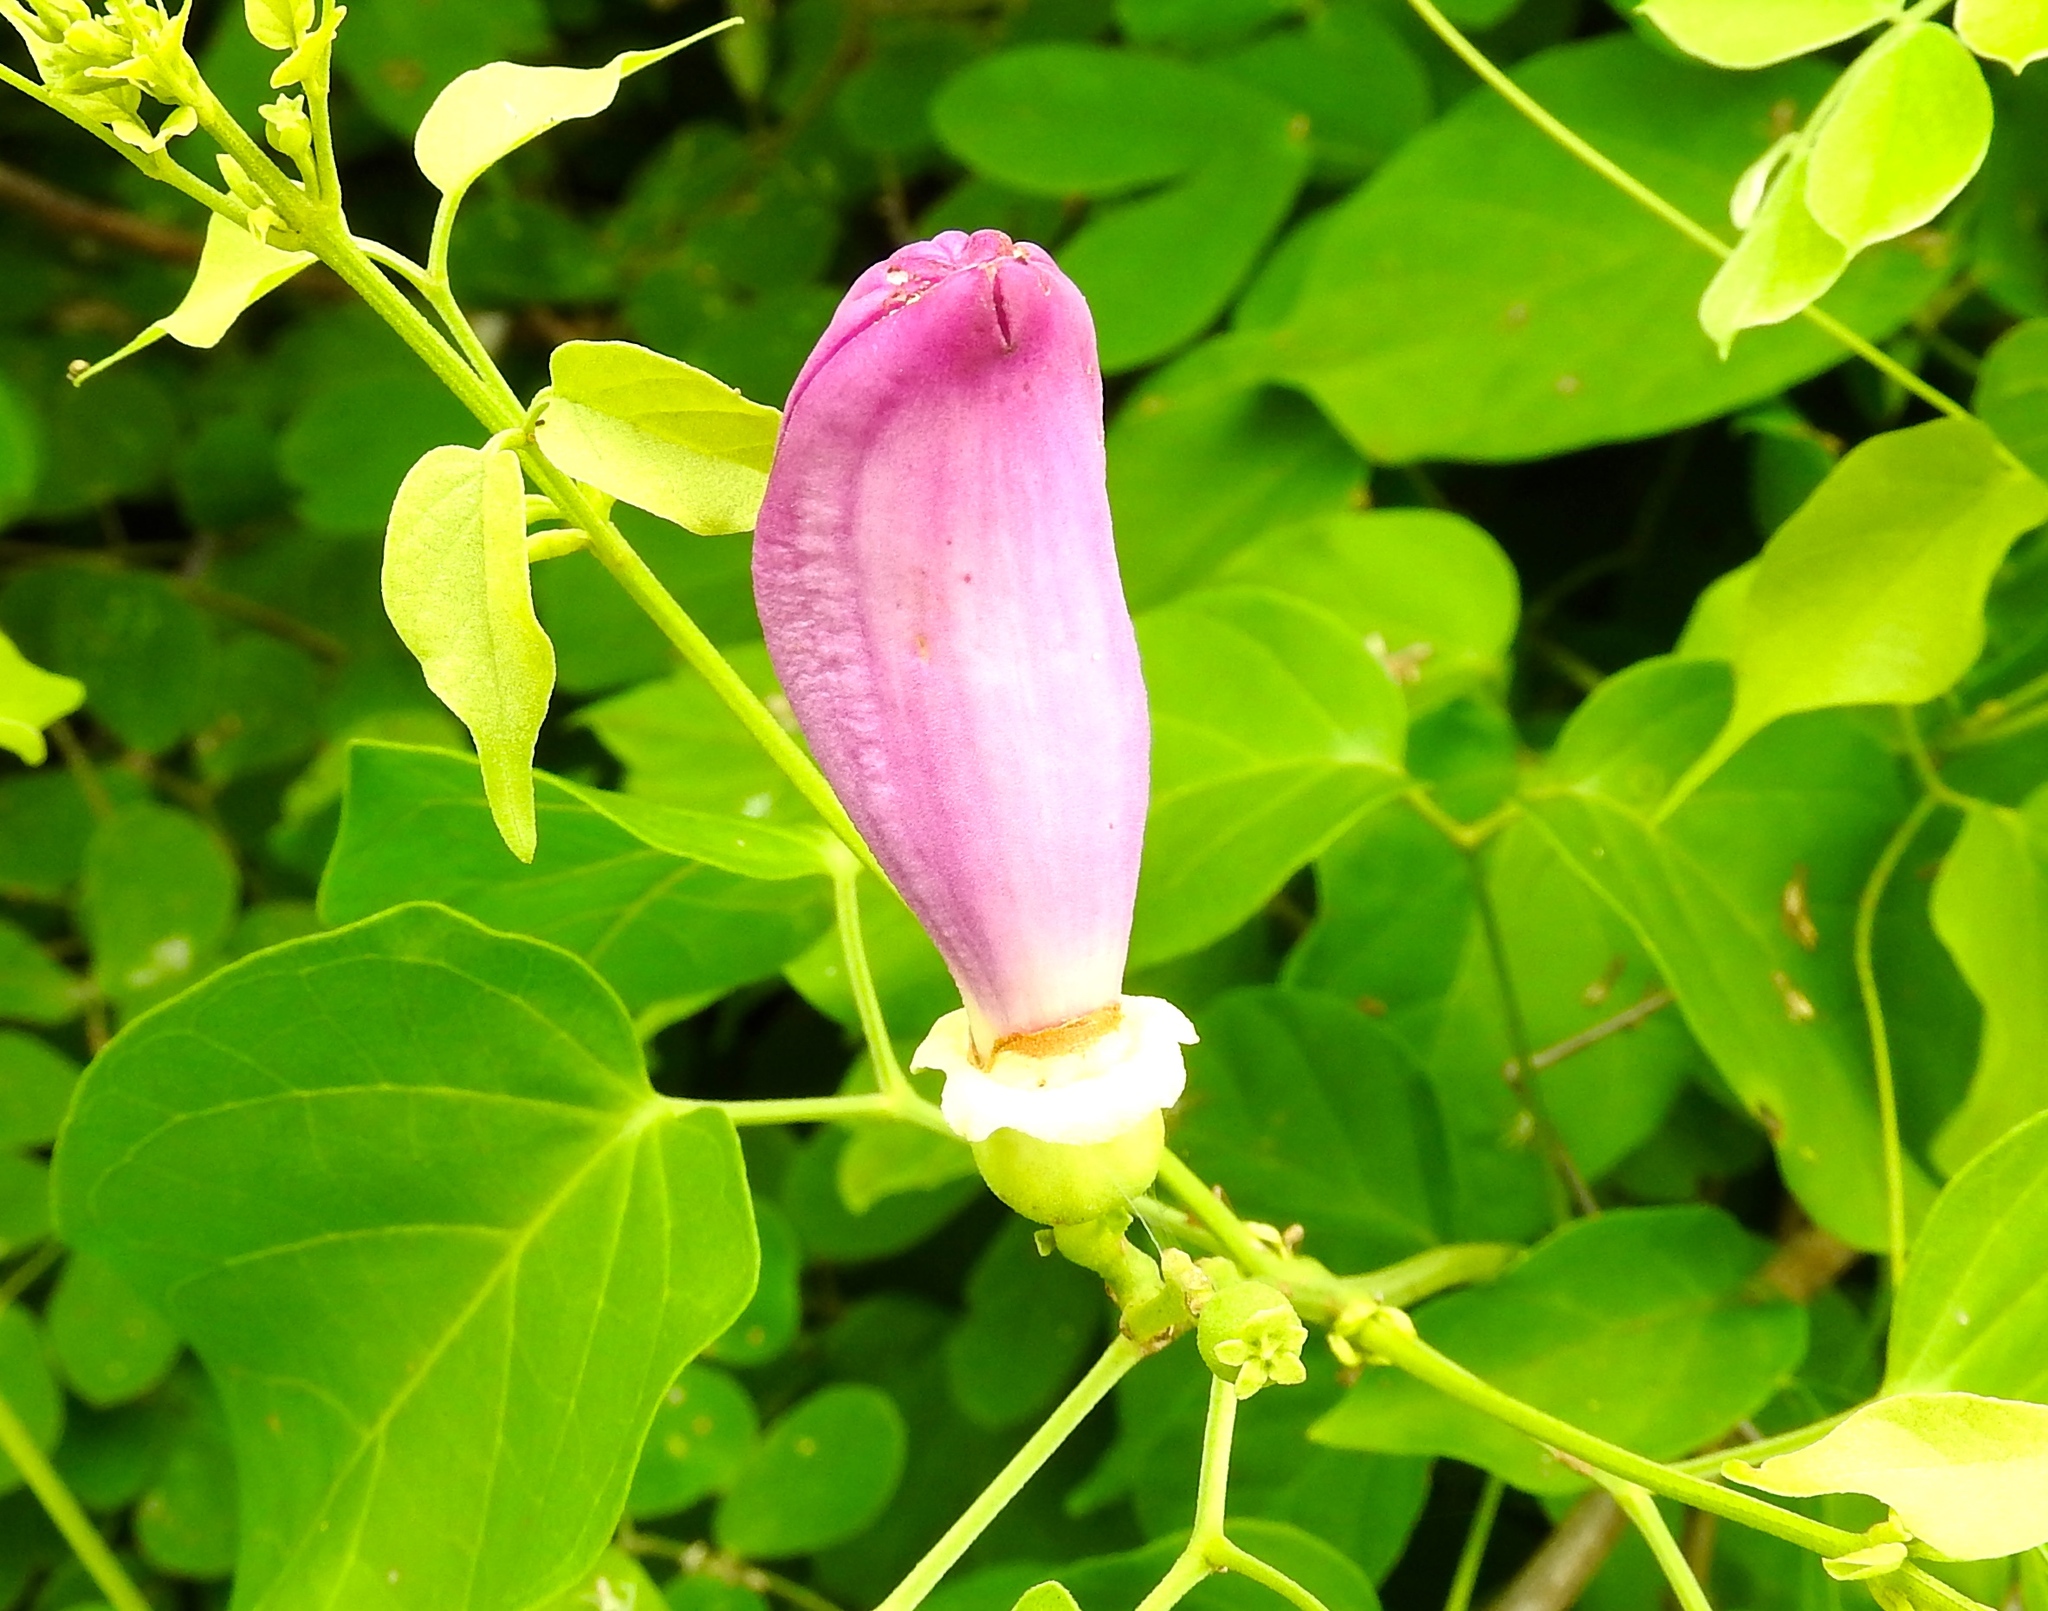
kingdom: Plantae
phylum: Tracheophyta
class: Magnoliopsida
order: Lamiales
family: Bignoniaceae
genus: Amphilophium
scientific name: Amphilophium paniculatum
